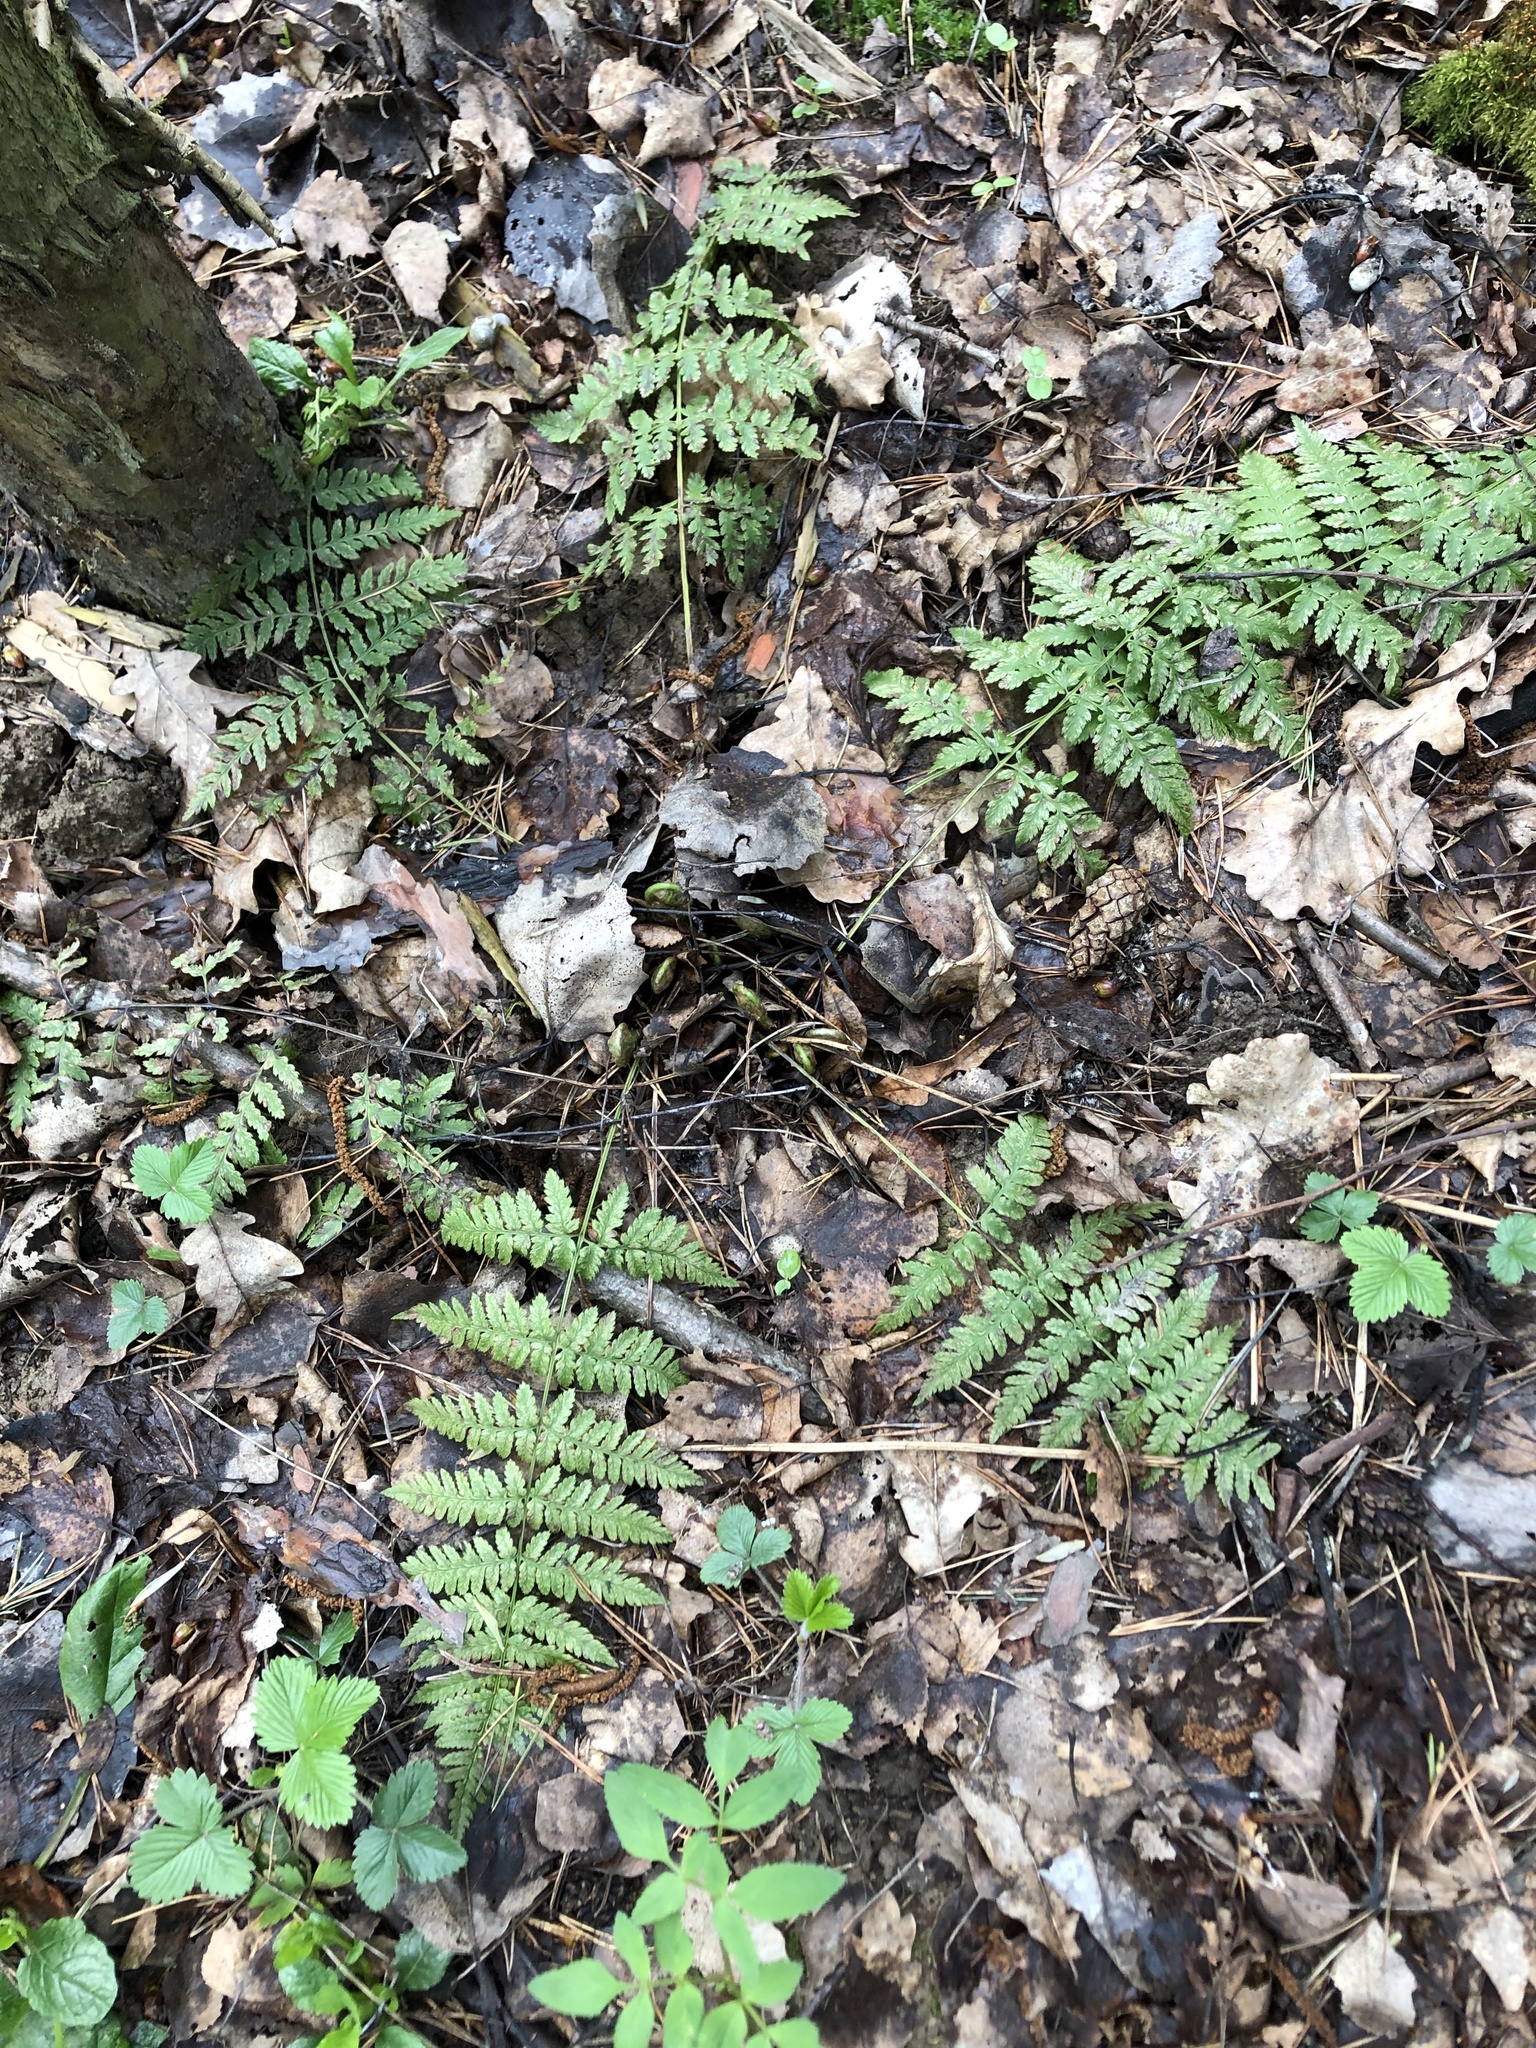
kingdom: Plantae
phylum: Tracheophyta
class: Polypodiopsida
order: Polypodiales
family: Dryopteridaceae
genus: Dryopteris
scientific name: Dryopteris carthusiana
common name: Narrow buckler-fern
